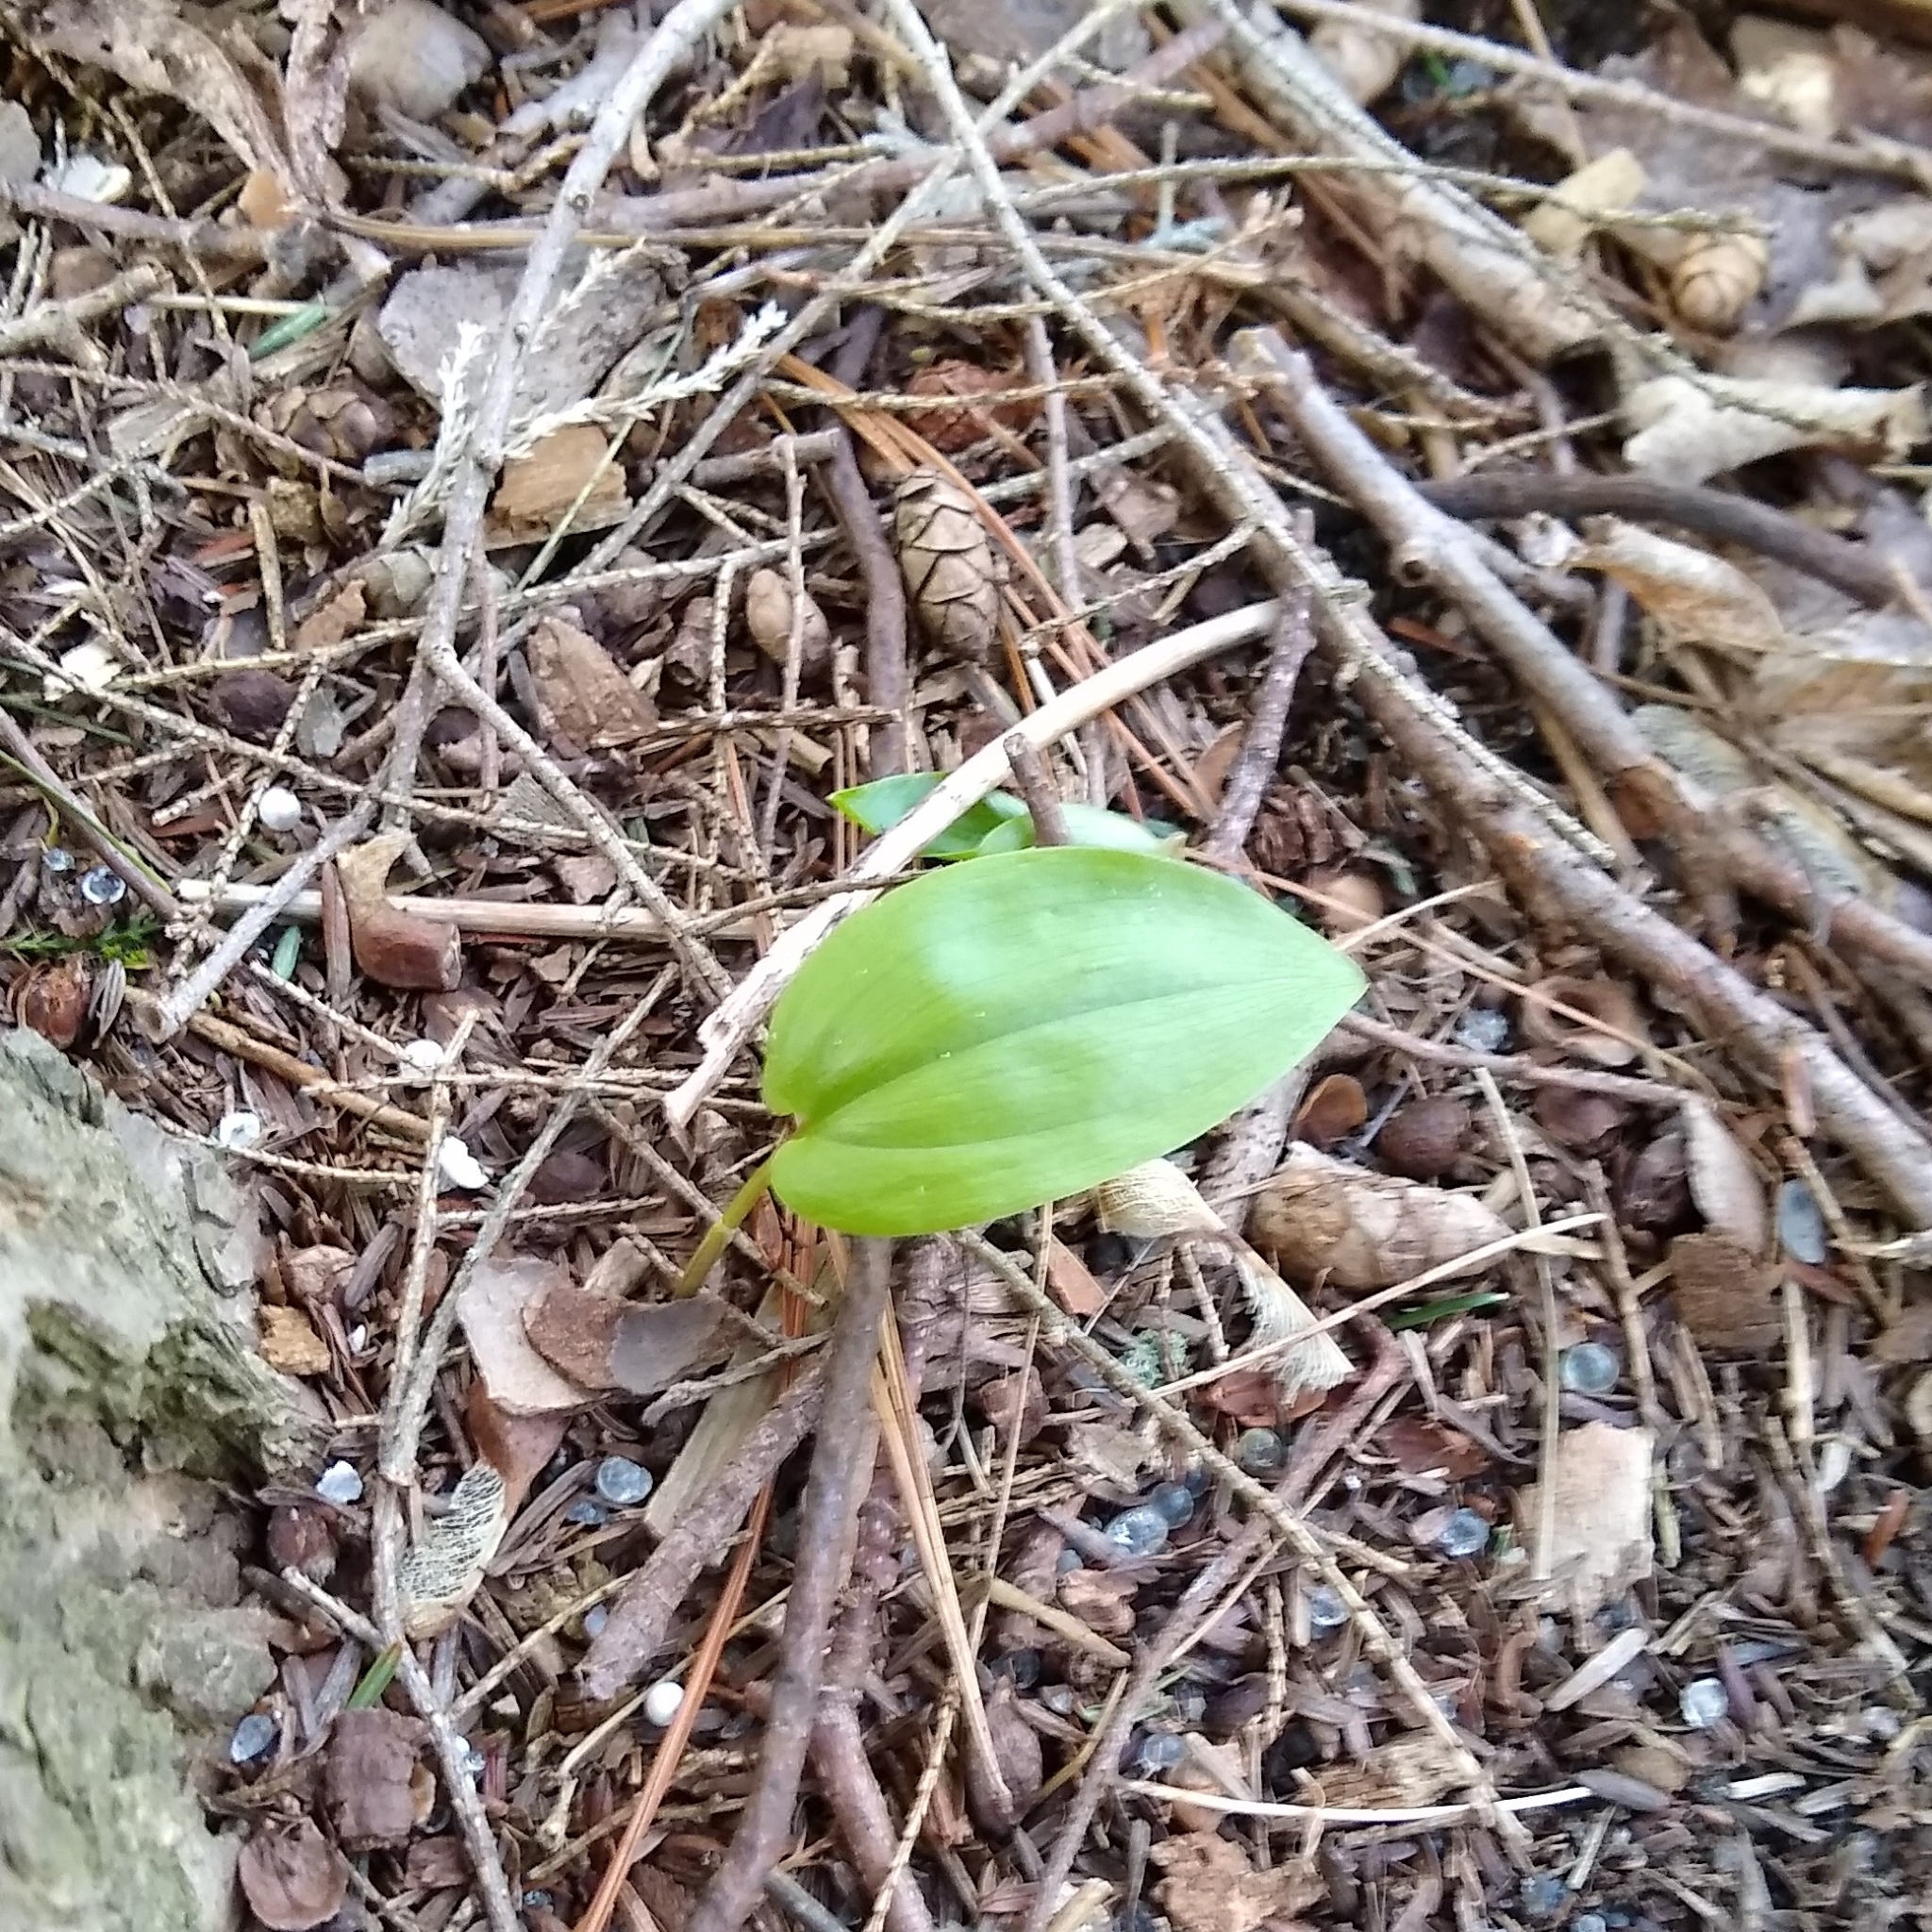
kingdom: Plantae
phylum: Tracheophyta
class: Liliopsida
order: Asparagales
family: Asparagaceae
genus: Maianthemum
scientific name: Maianthemum canadense
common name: False lily-of-the-valley
